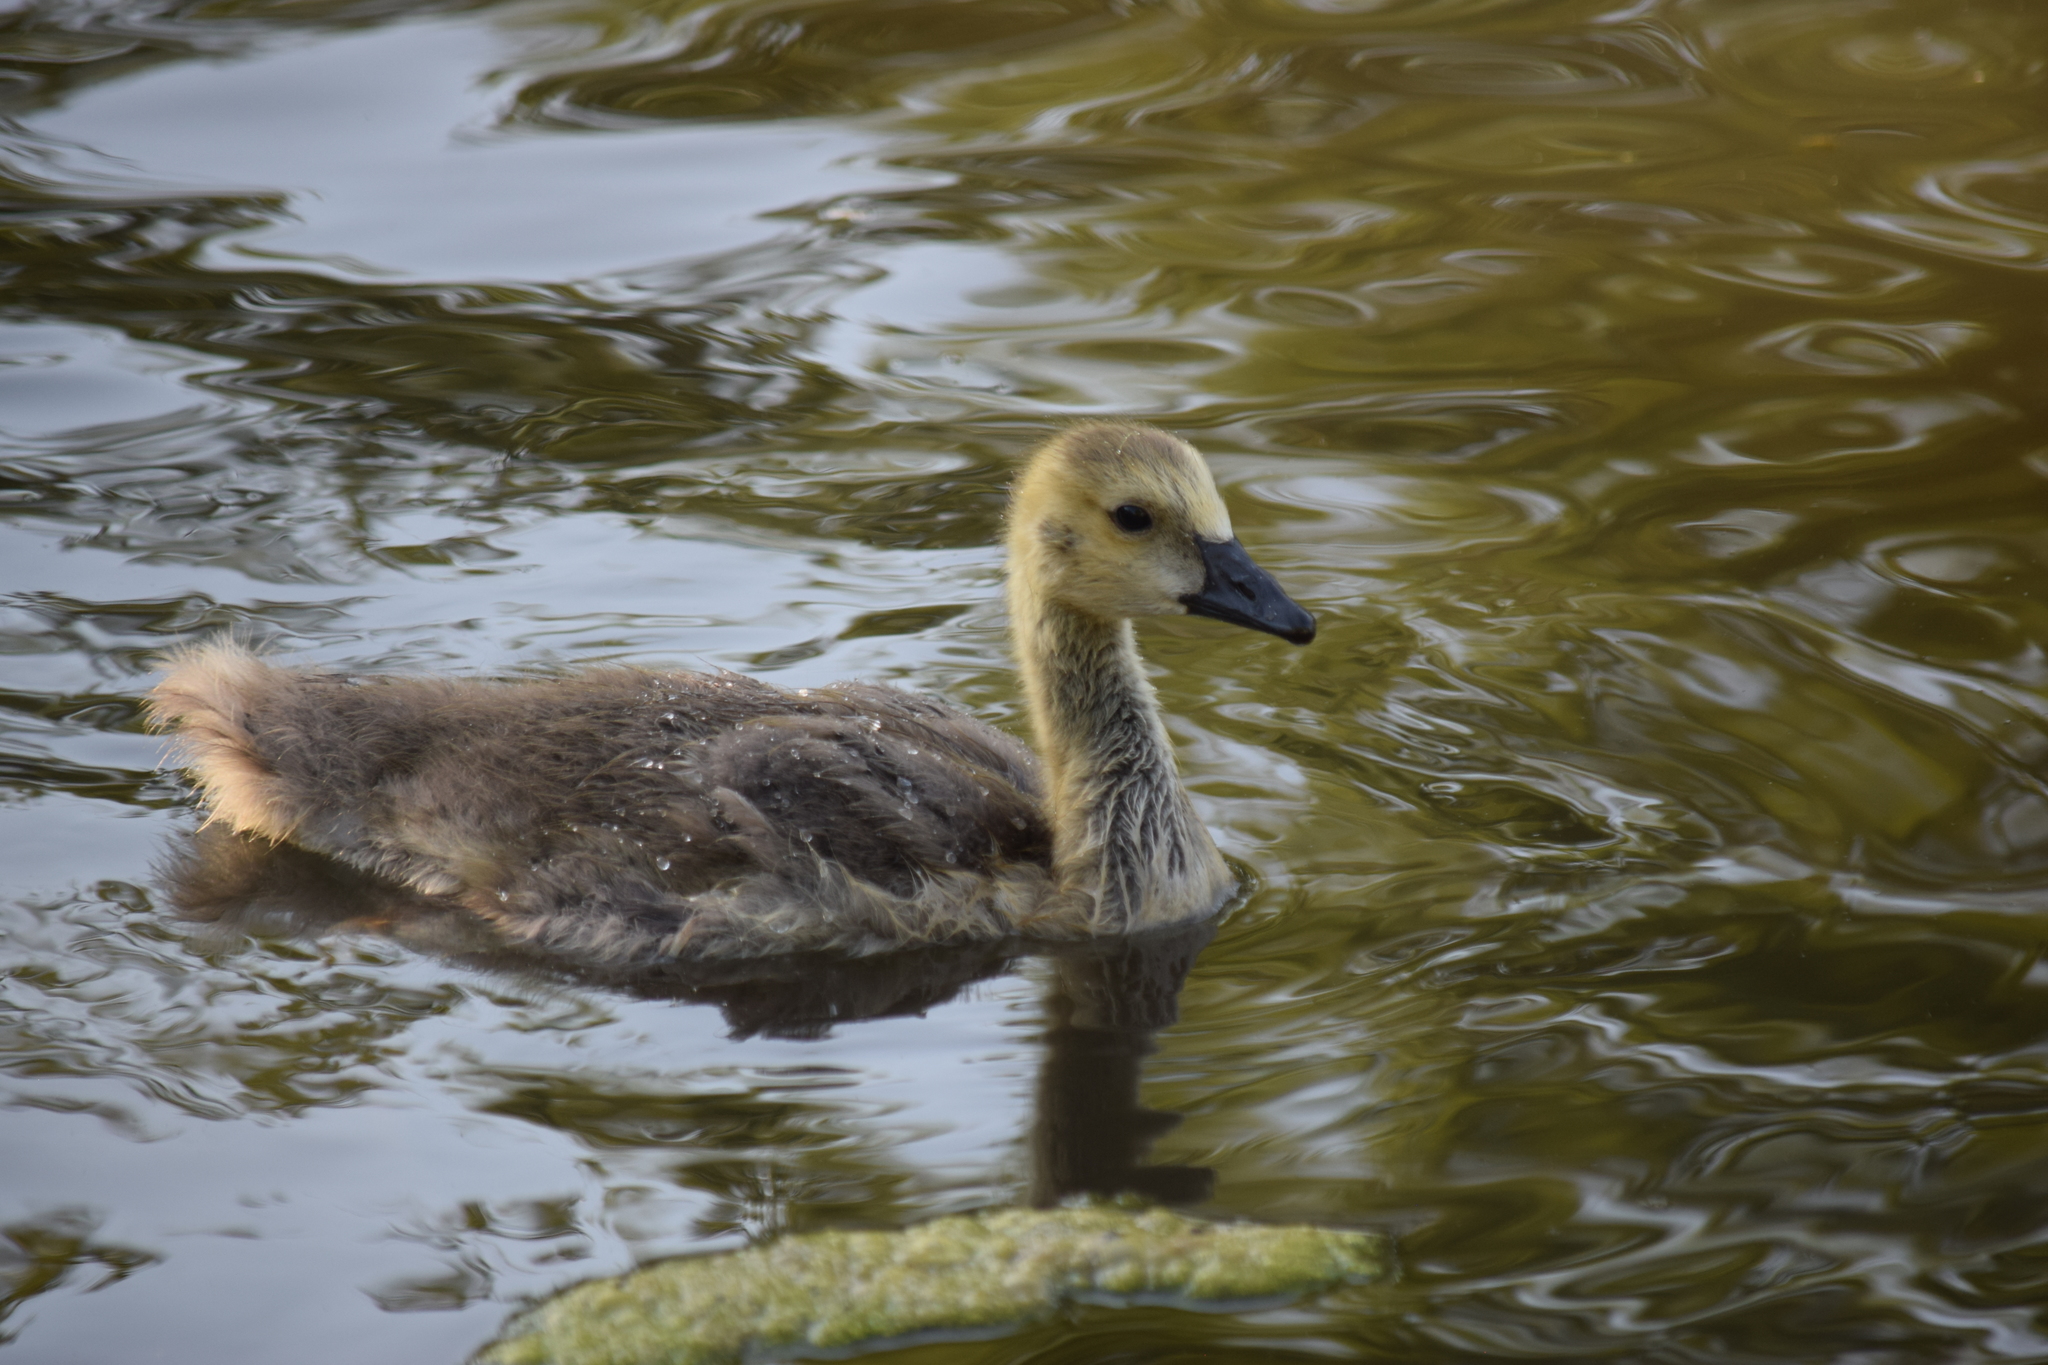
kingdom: Animalia
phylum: Chordata
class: Aves
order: Anseriformes
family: Anatidae
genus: Branta
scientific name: Branta canadensis
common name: Canada goose
